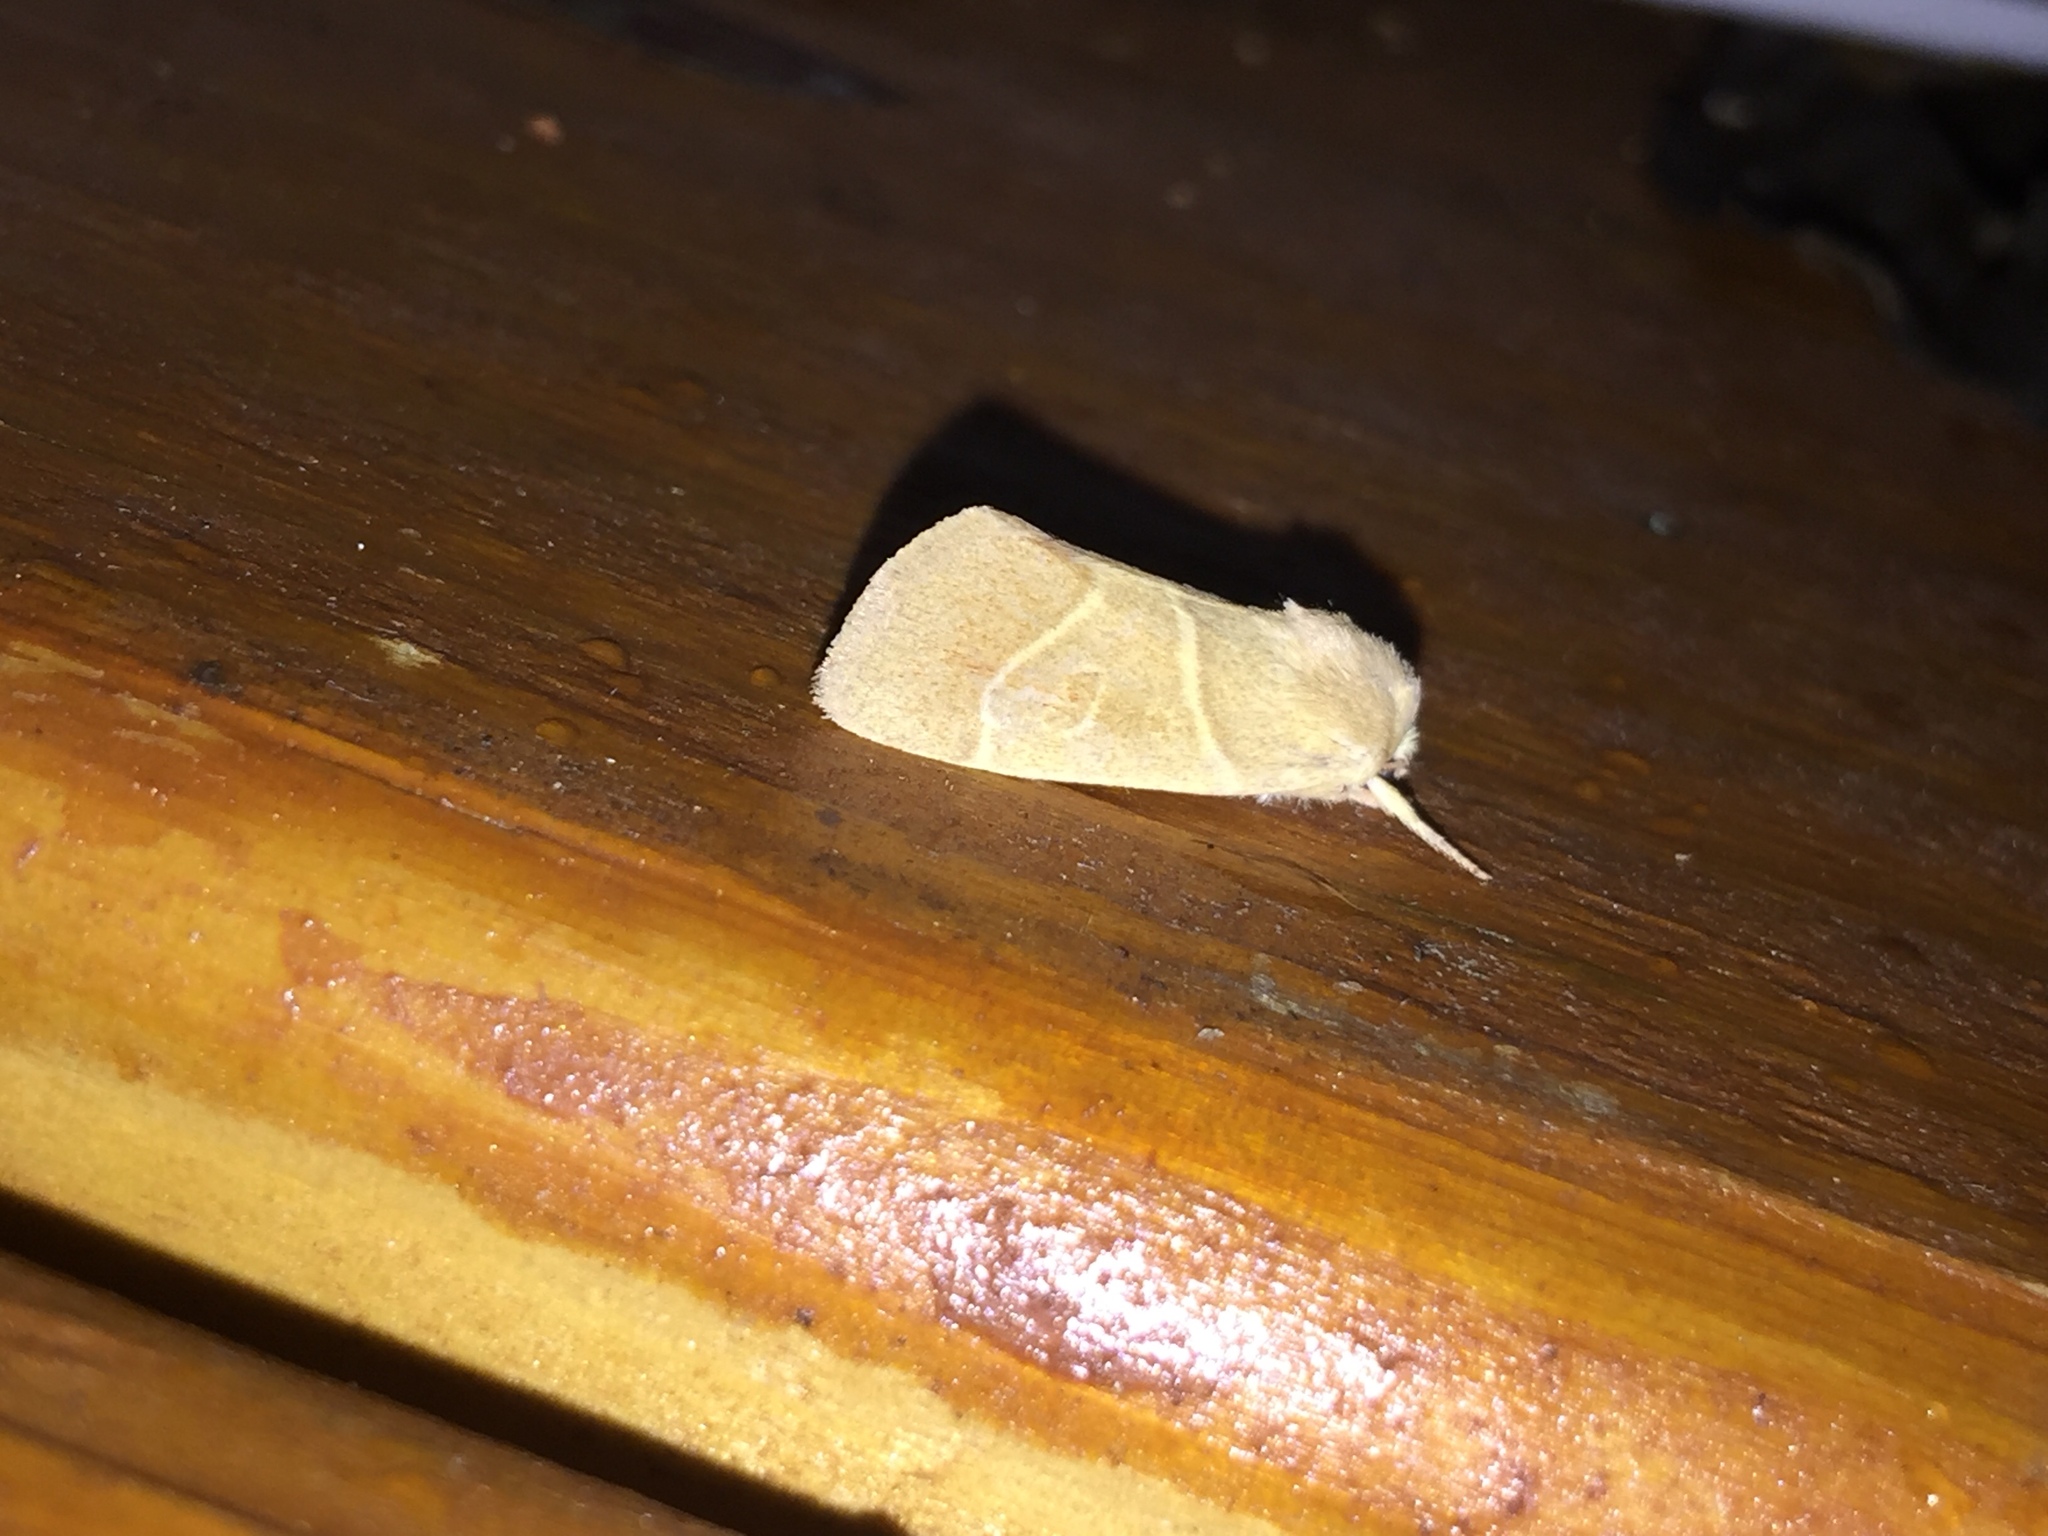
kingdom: Animalia
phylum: Arthropoda
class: Insecta
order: Lepidoptera
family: Noctuidae
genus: Cosmia
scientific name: Cosmia calami
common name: American dun-bar moth
